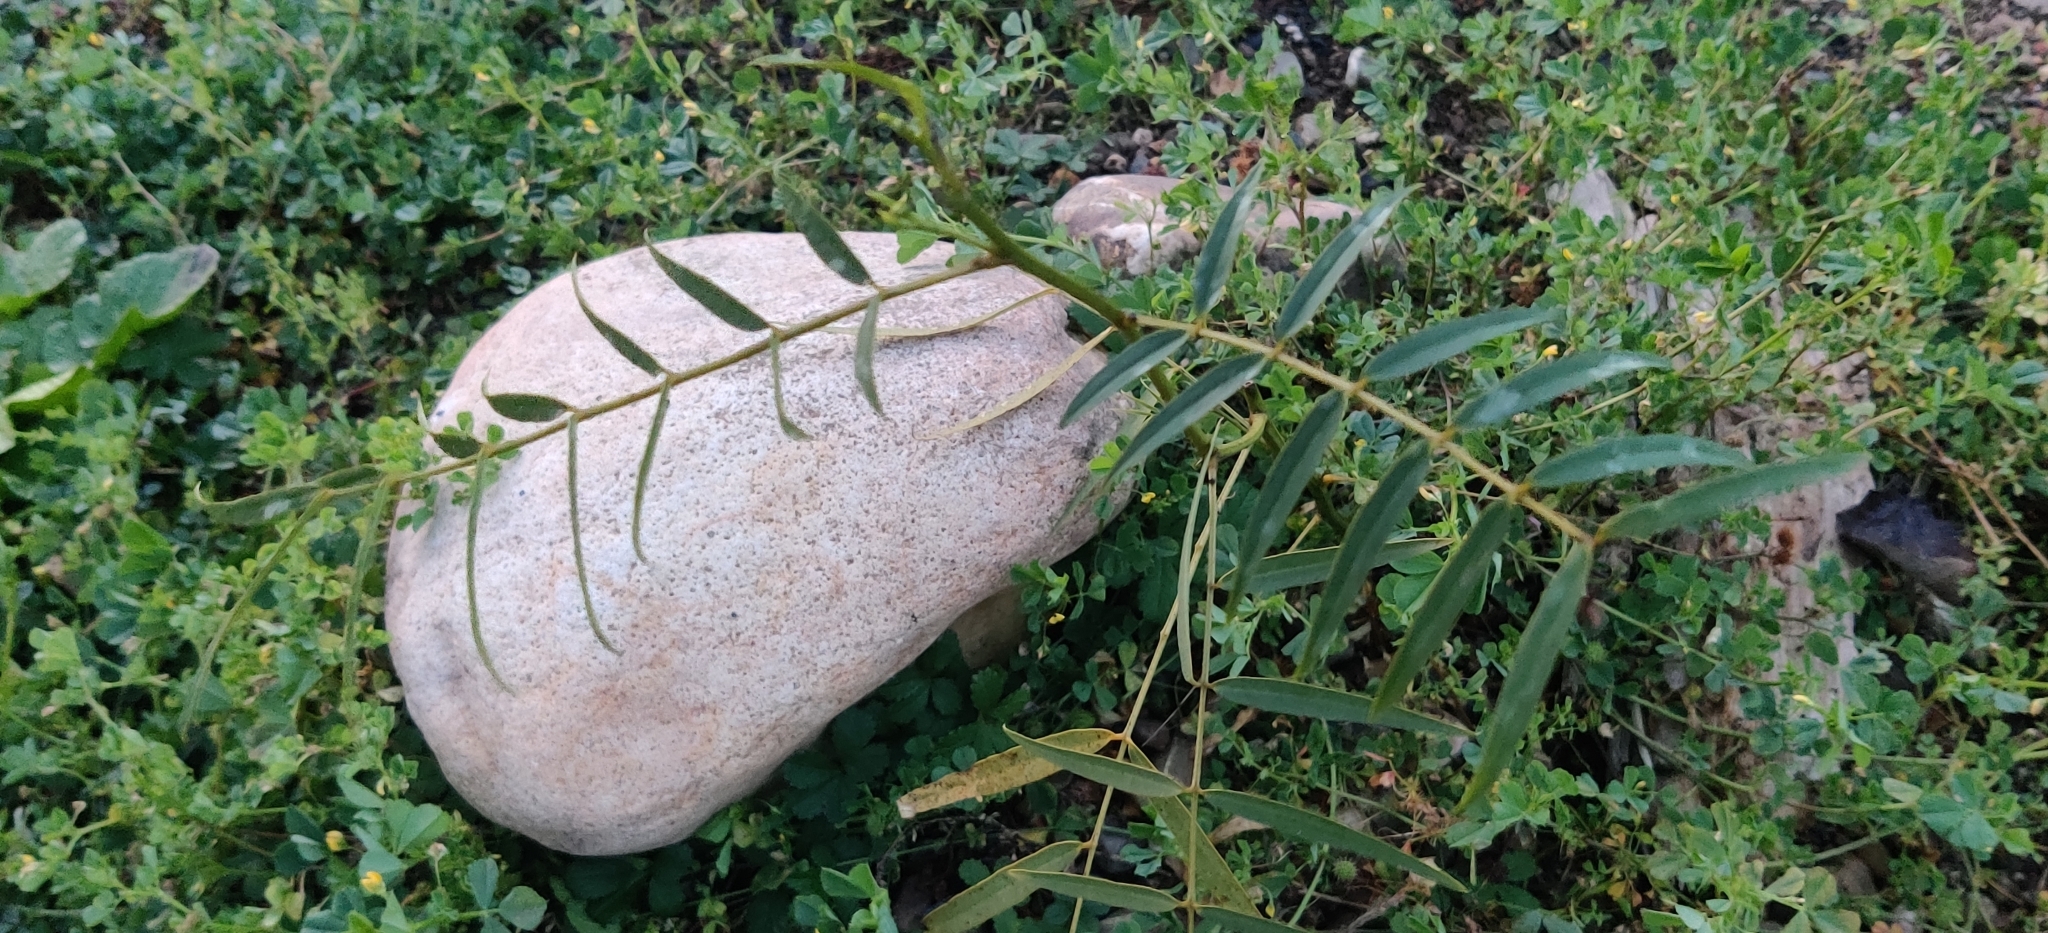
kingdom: Plantae
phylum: Tracheophyta
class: Magnoliopsida
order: Fabales
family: Fabaceae
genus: Senna
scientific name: Senna barclayana
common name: Smooth senna
